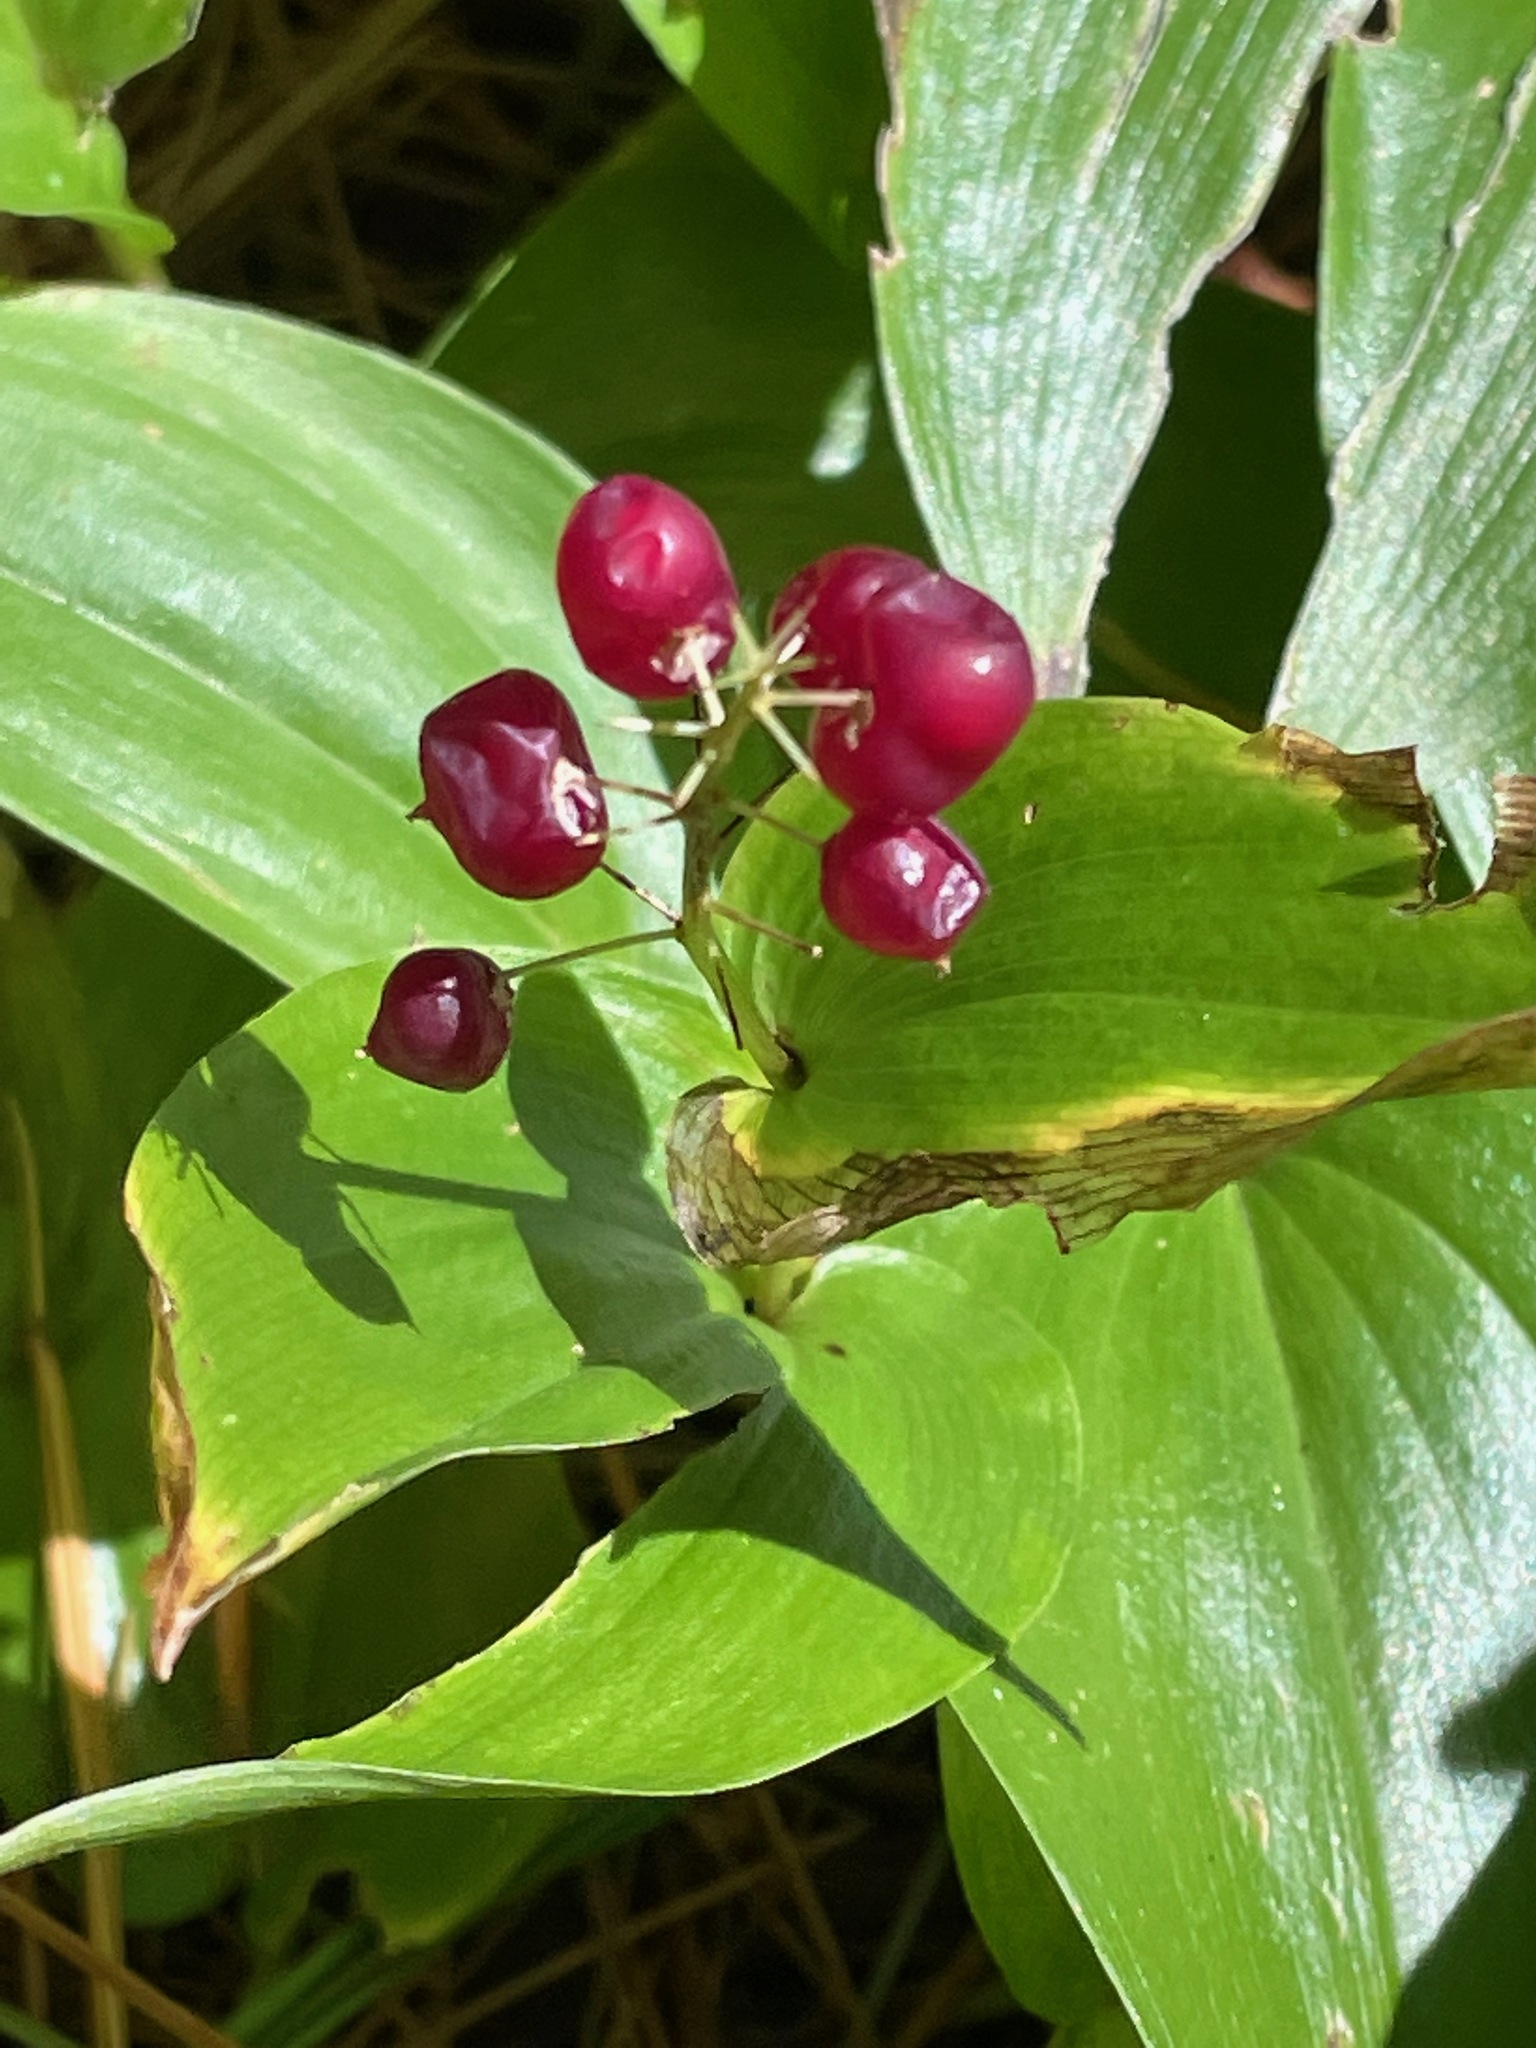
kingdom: Plantae
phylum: Tracheophyta
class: Liliopsida
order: Asparagales
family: Asparagaceae
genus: Maianthemum
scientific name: Maianthemum canadense
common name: False lily-of-the-valley
